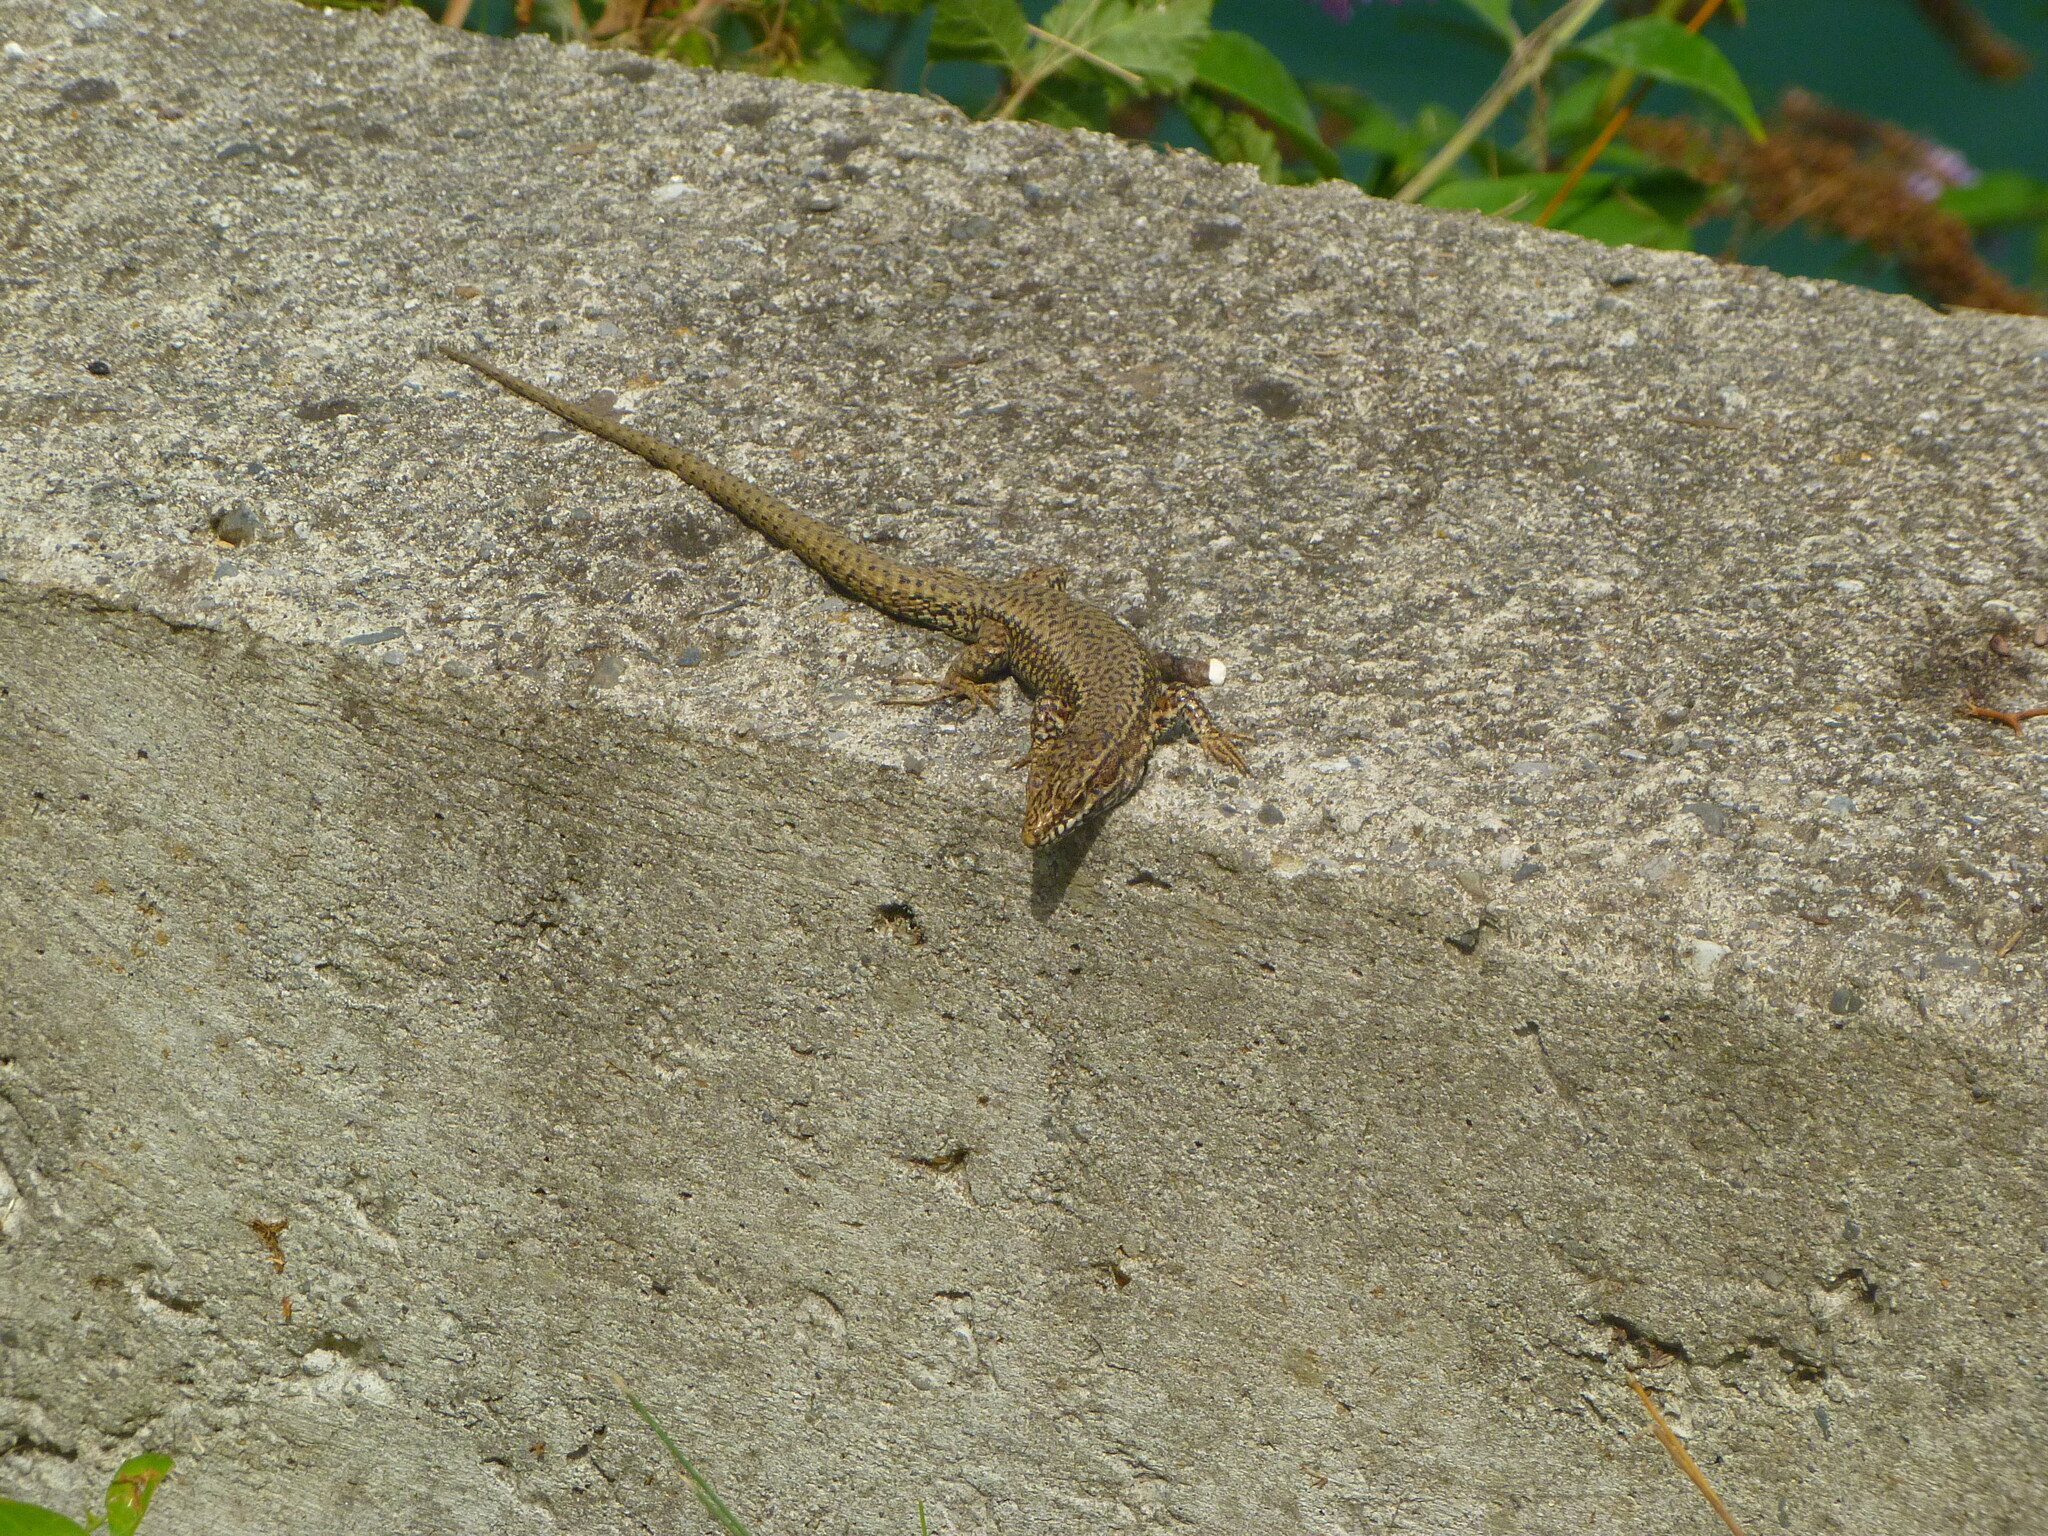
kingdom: Animalia
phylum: Chordata
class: Squamata
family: Lacertidae
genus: Podarcis
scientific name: Podarcis muralis
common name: Common wall lizard
